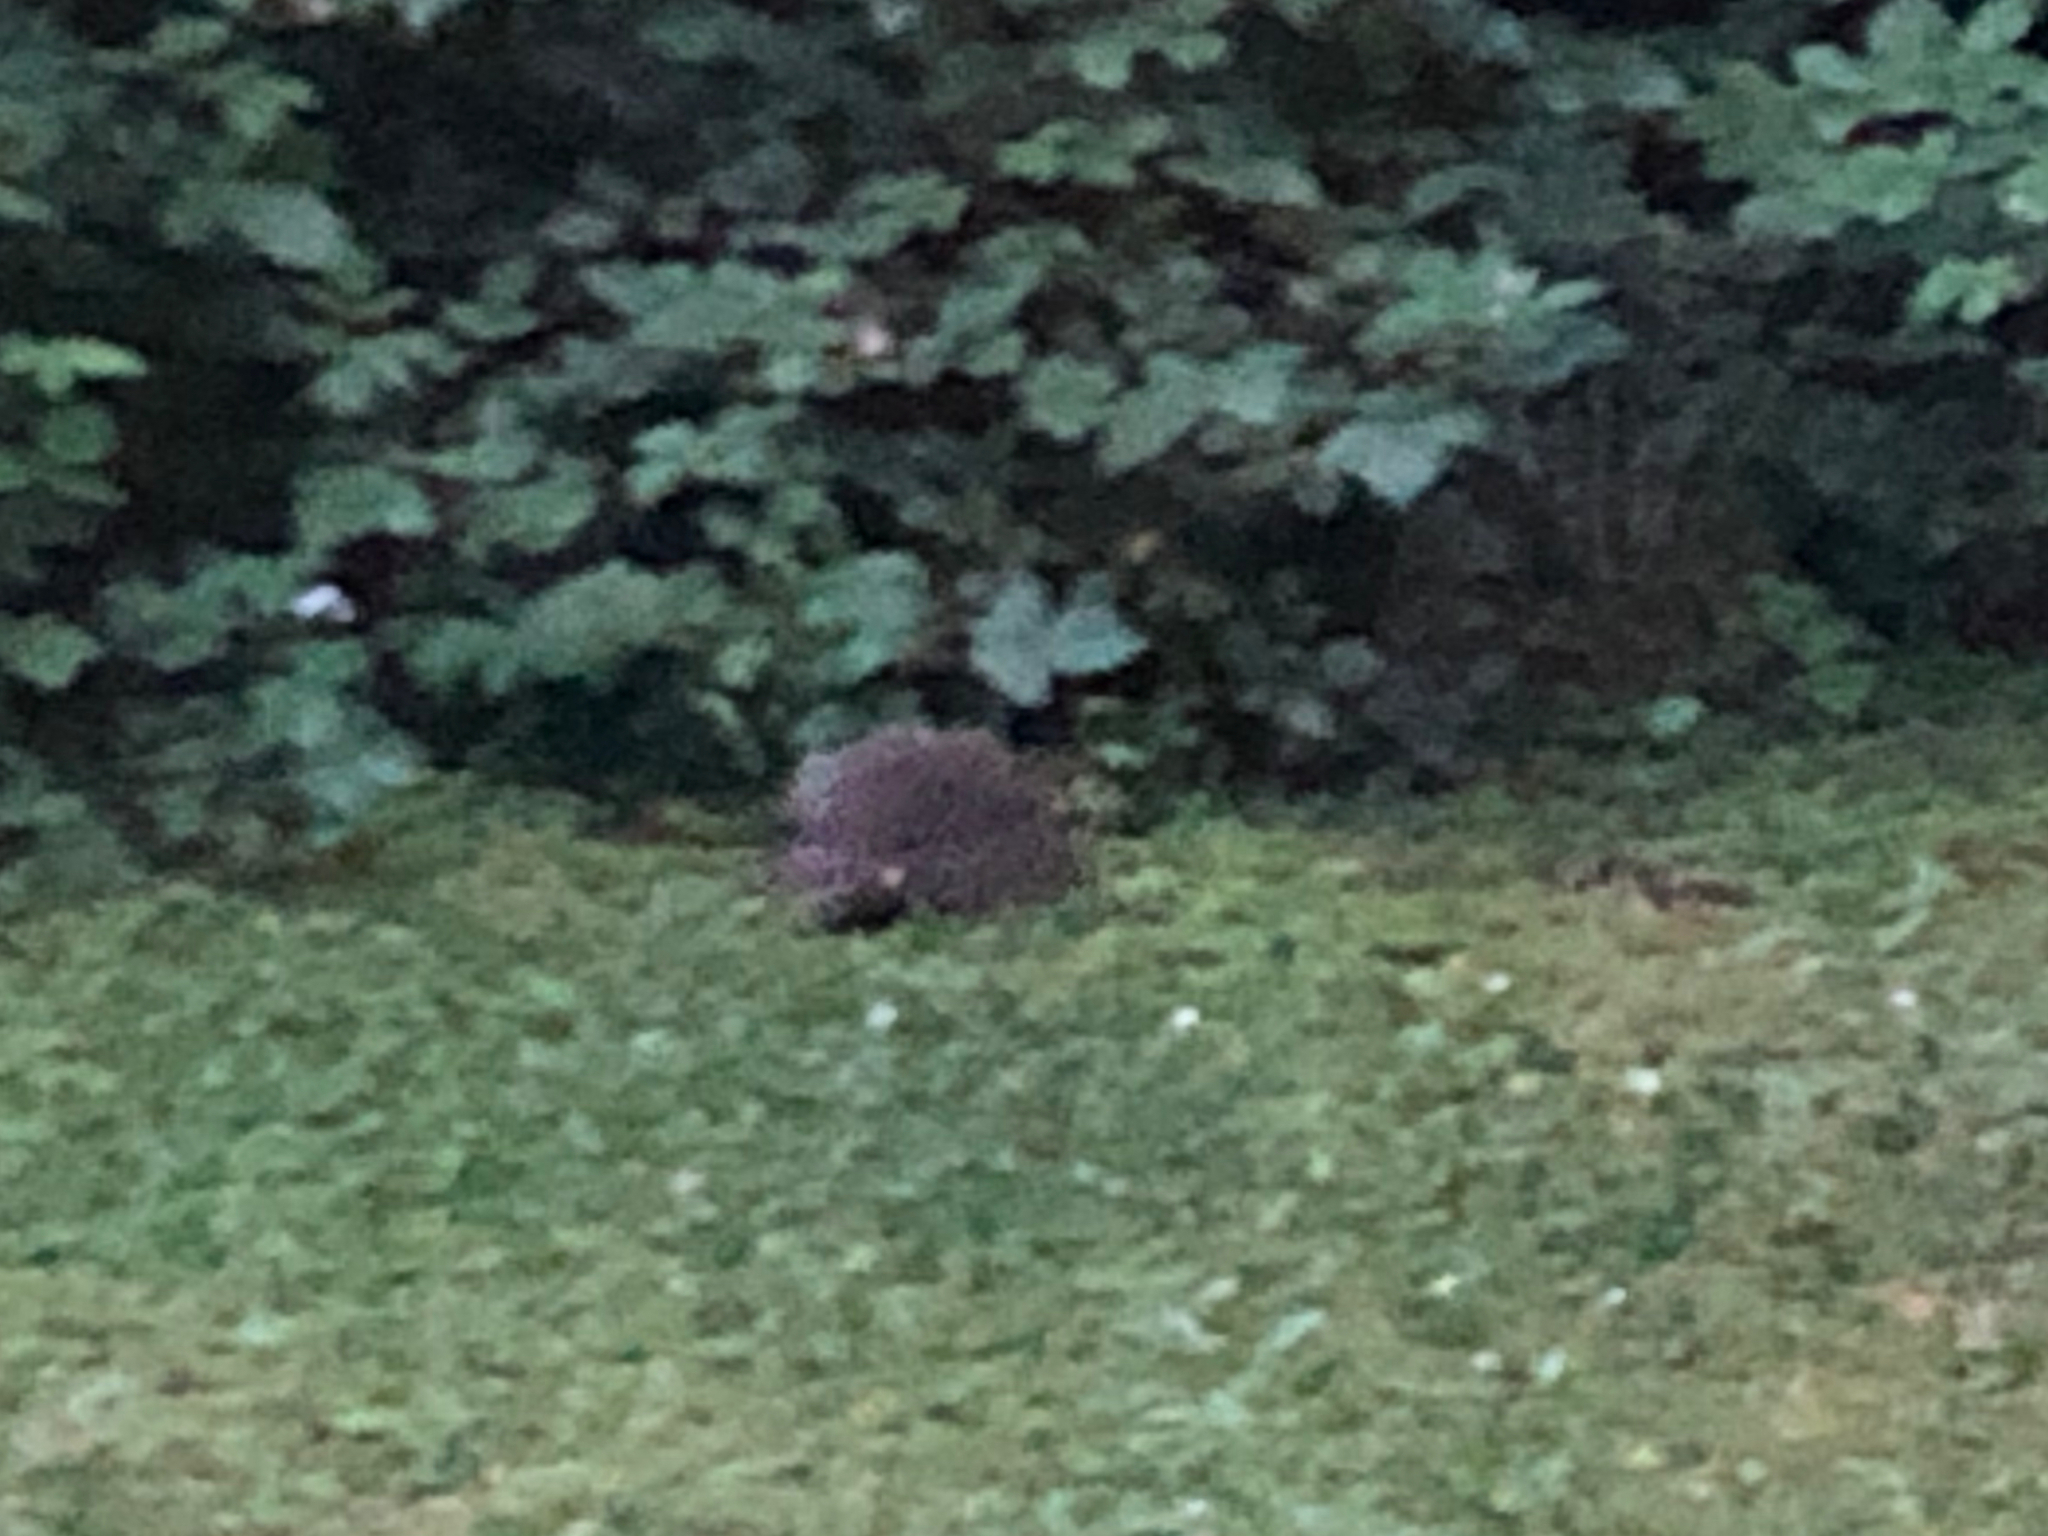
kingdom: Animalia
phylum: Chordata
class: Mammalia
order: Erinaceomorpha
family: Erinaceidae
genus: Erinaceus
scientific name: Erinaceus europaeus
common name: West european hedgehog
